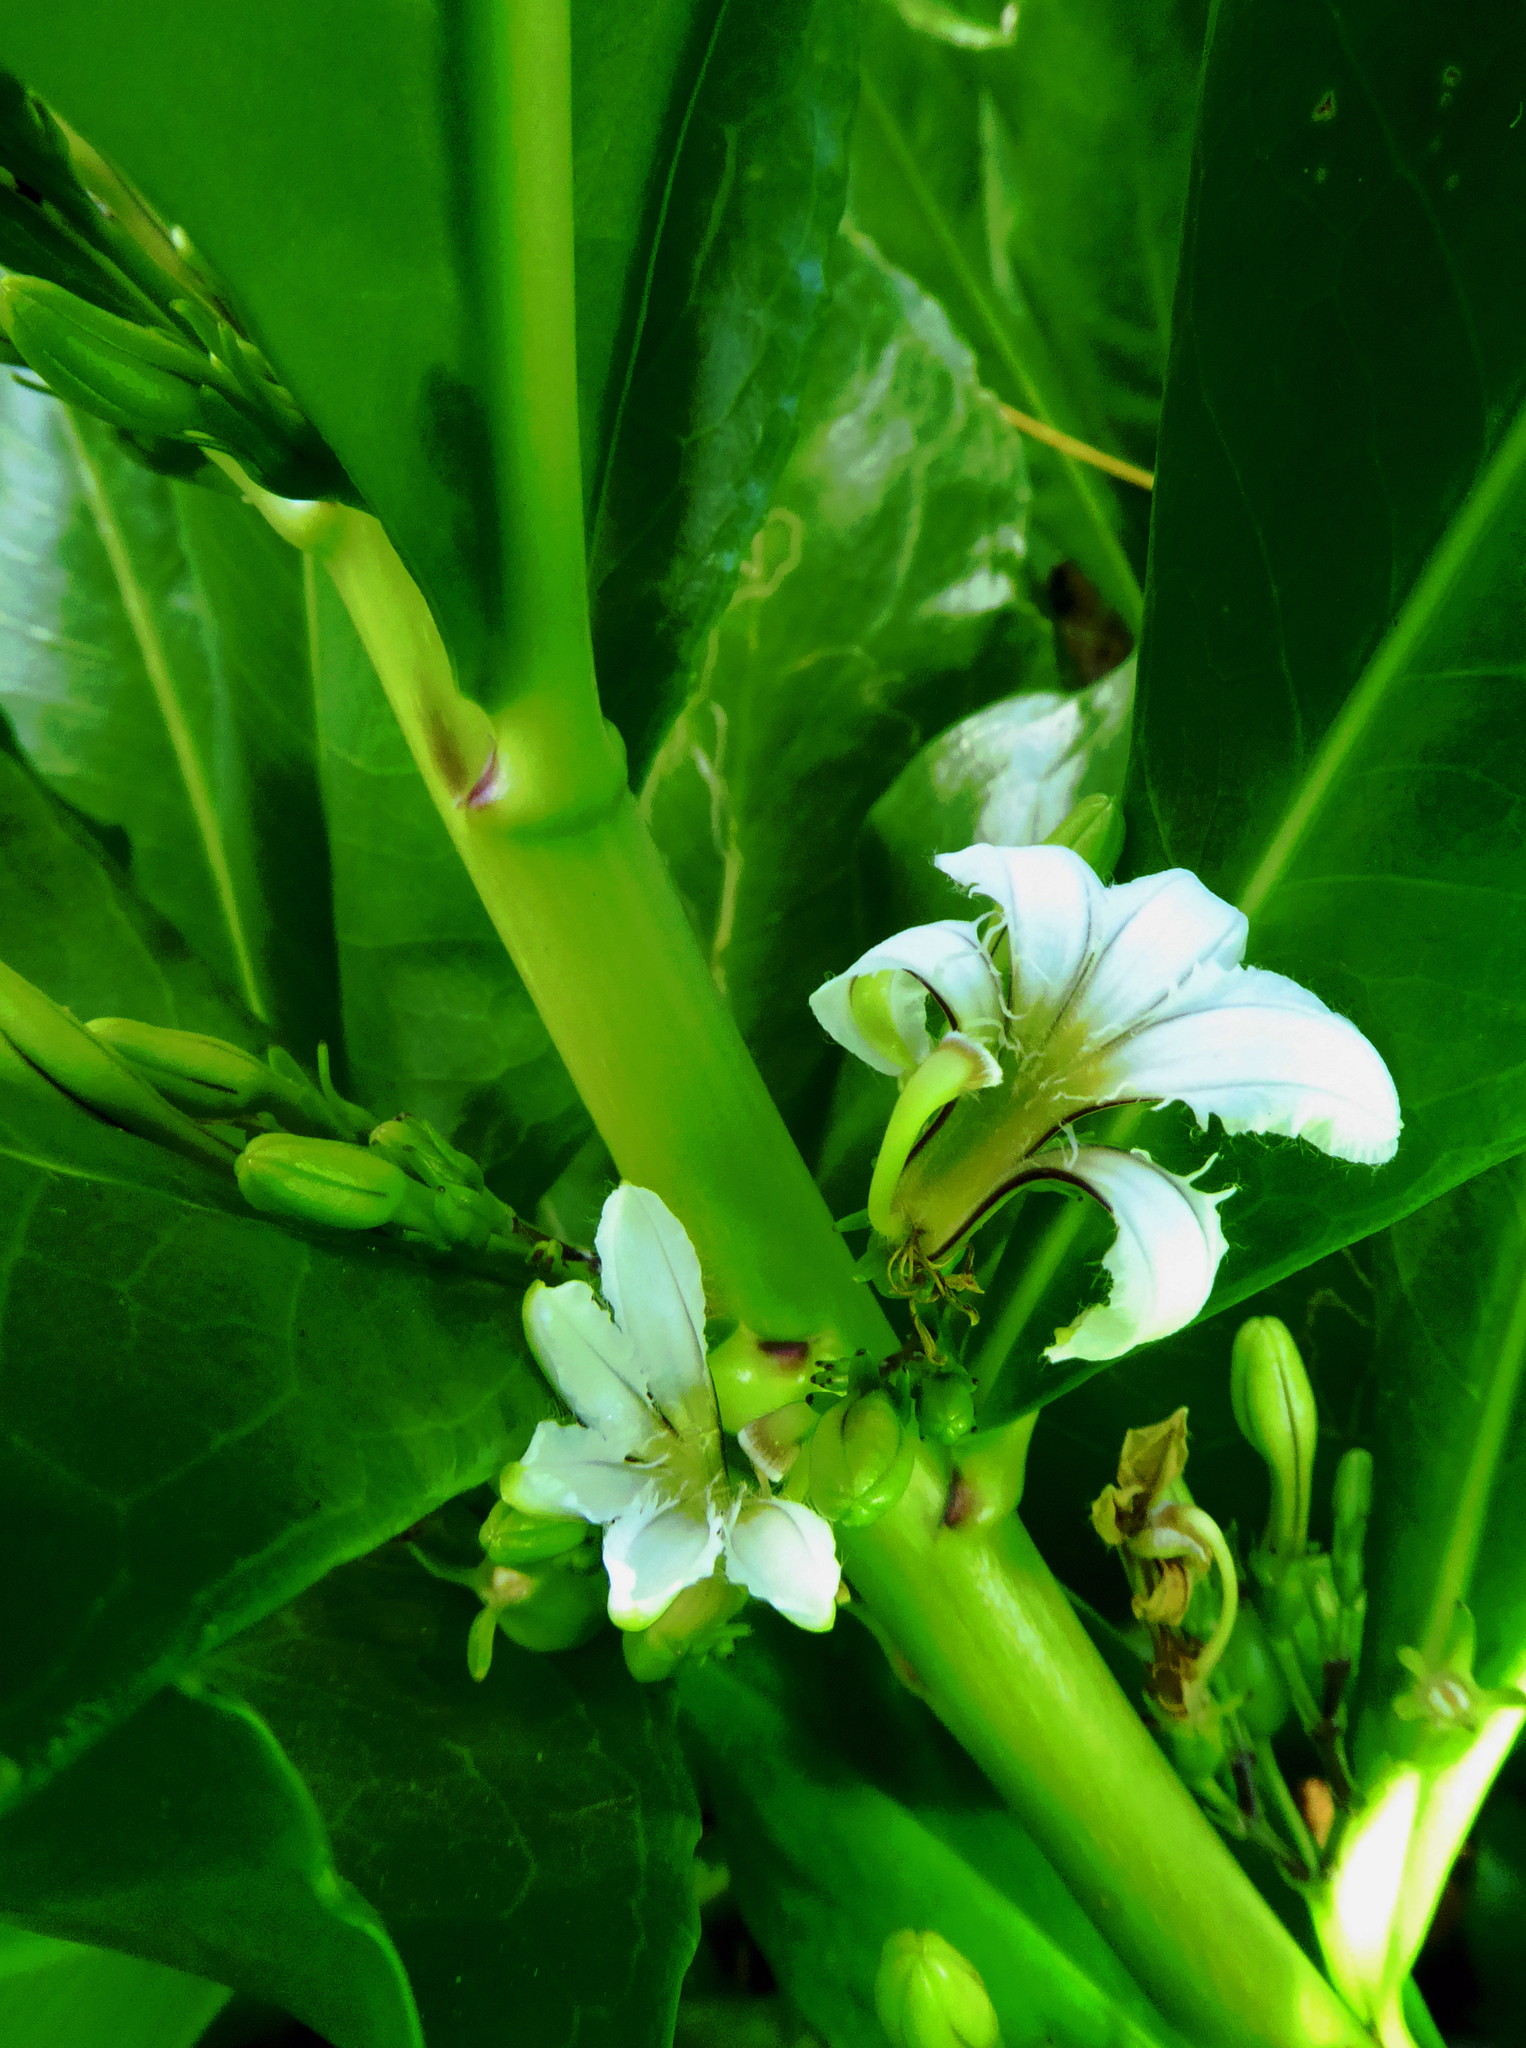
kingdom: Plantae
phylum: Tracheophyta
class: Magnoliopsida
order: Asterales
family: Goodeniaceae
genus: Scaevola
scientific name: Scaevola taccada
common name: Sea lettucetree
